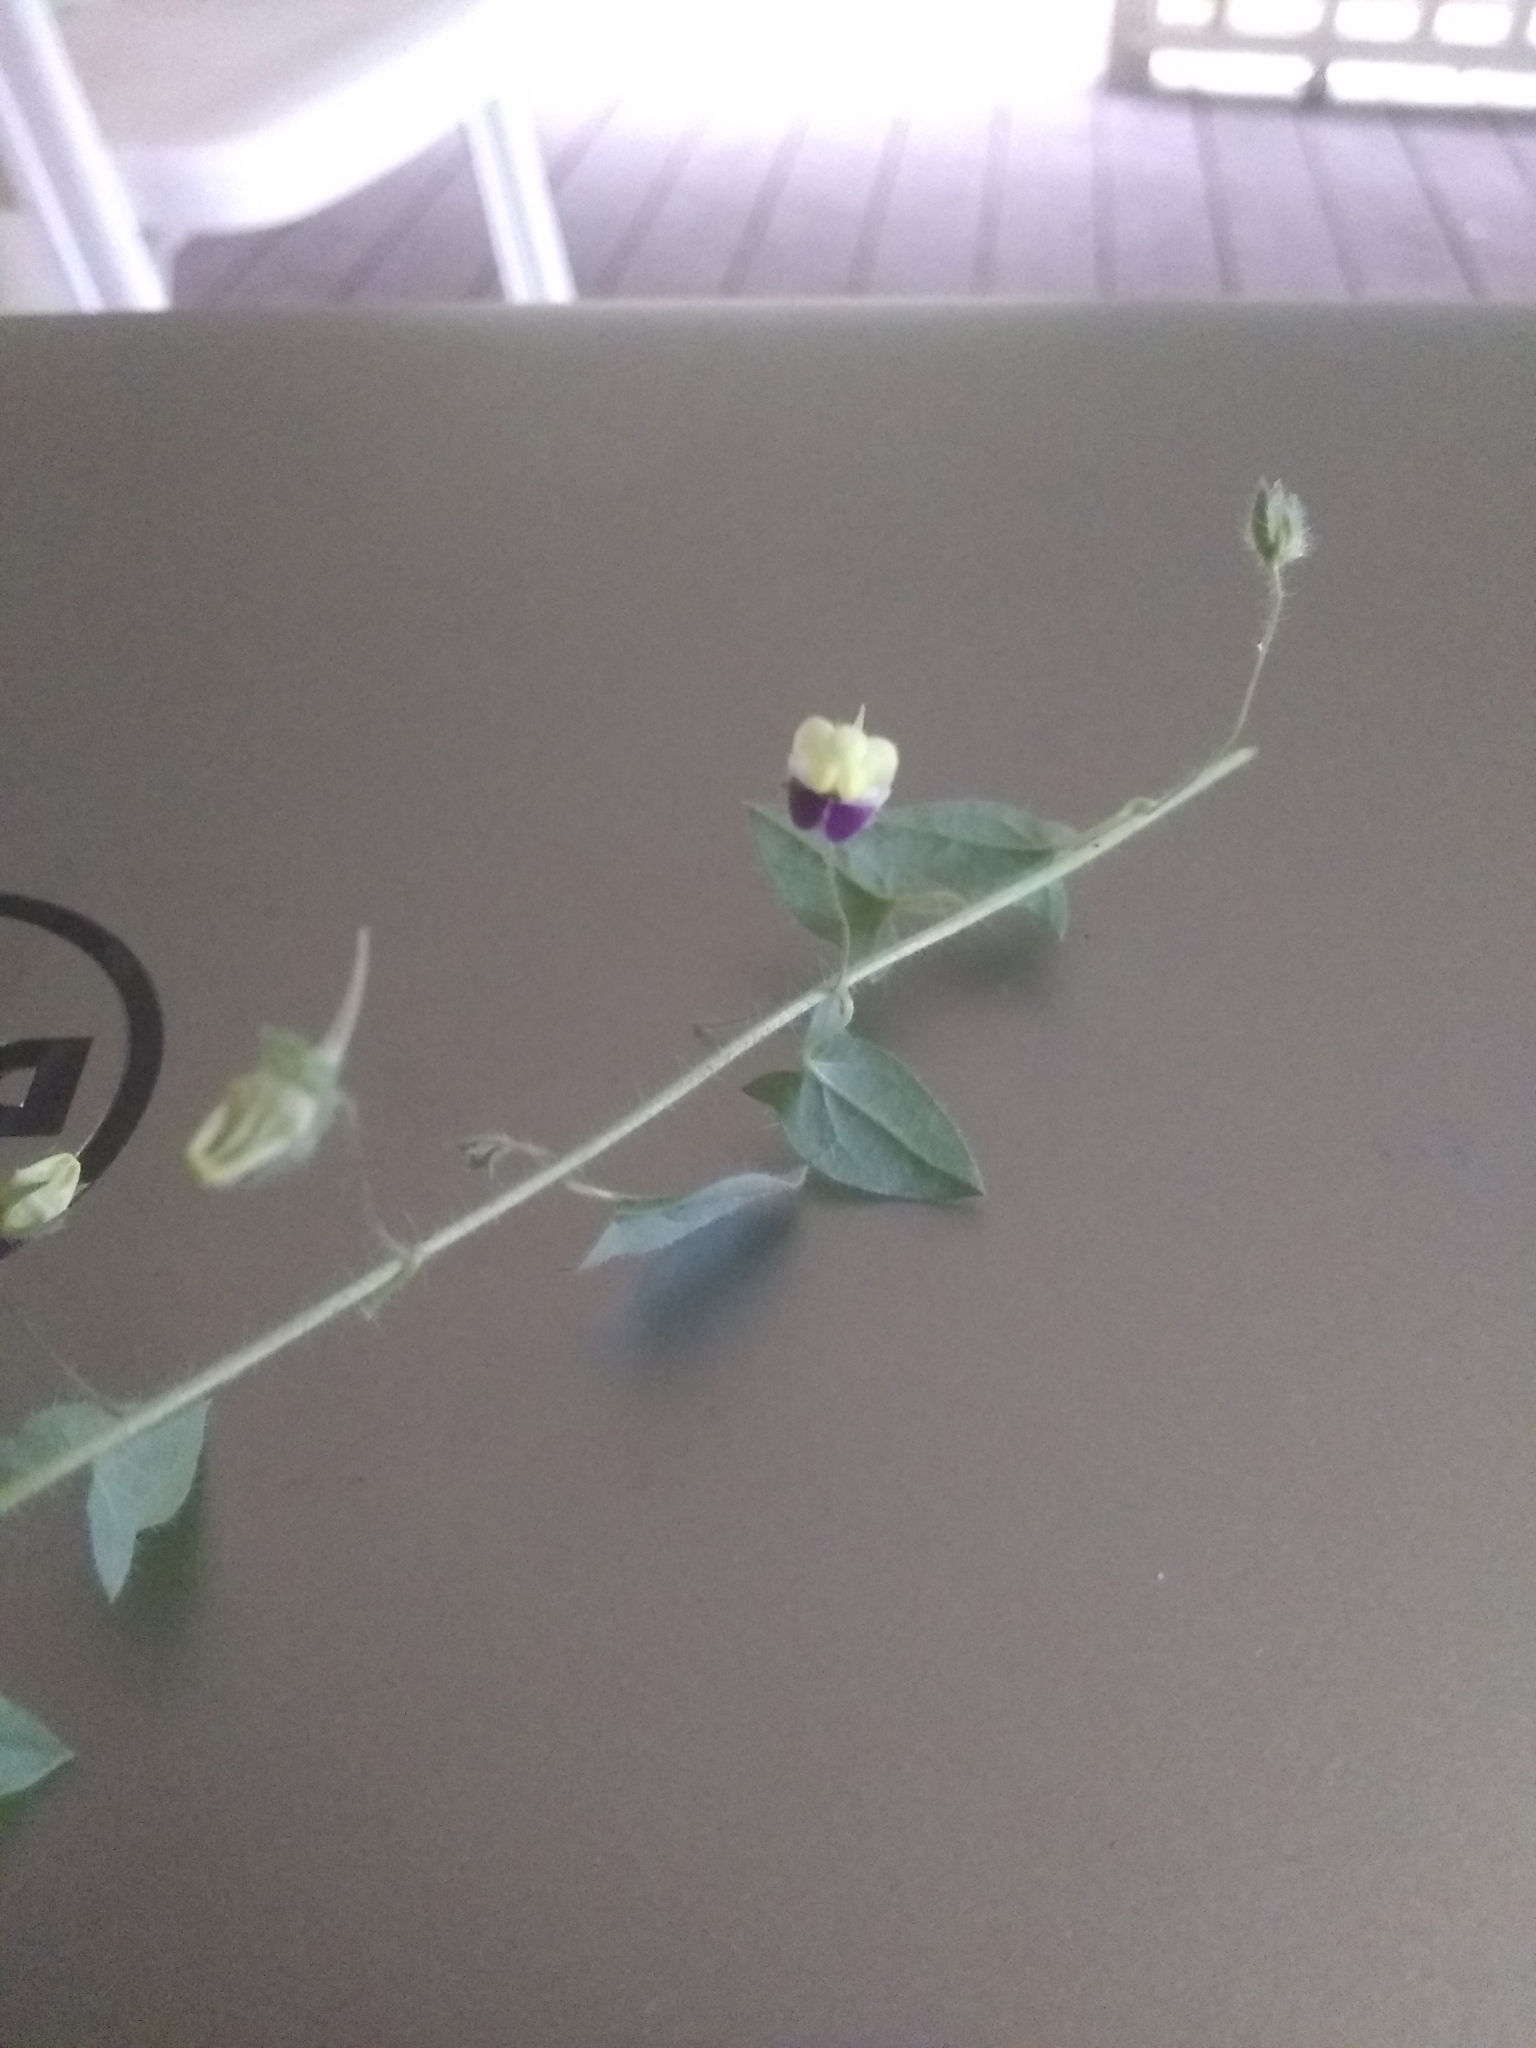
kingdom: Plantae
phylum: Tracheophyta
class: Magnoliopsida
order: Lamiales
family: Plantaginaceae
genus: Kickxia
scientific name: Kickxia elatine
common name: Sharp-leaved fluellen
